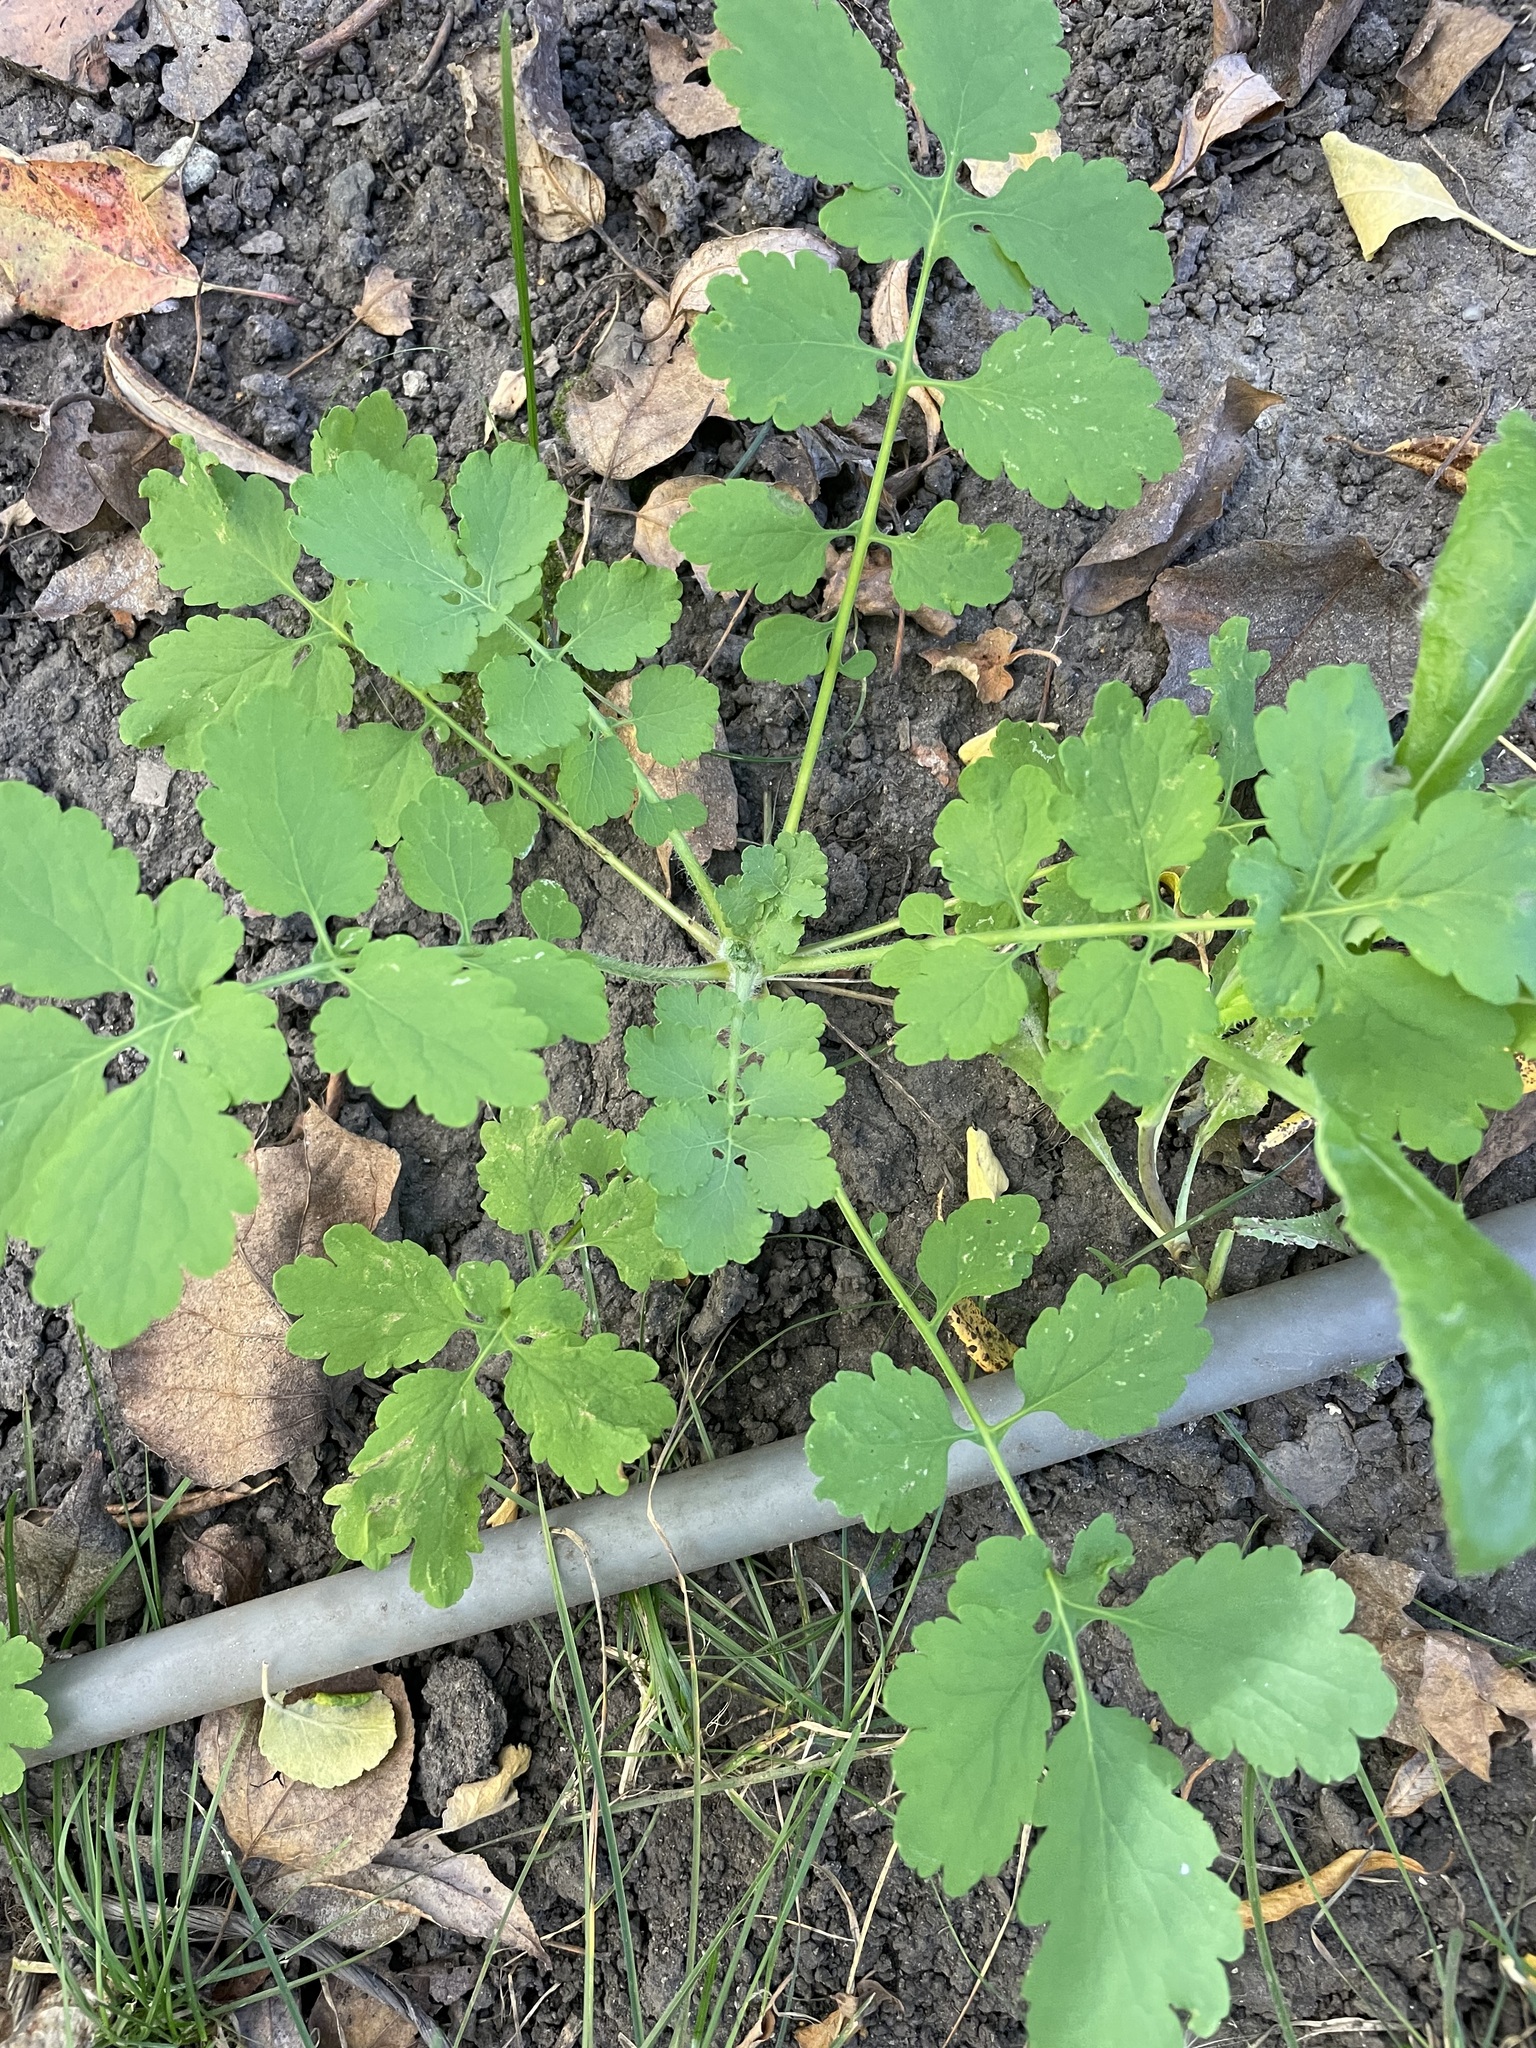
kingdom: Plantae
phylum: Tracheophyta
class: Magnoliopsida
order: Ranunculales
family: Papaveraceae
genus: Chelidonium
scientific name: Chelidonium majus
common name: Greater celandine
